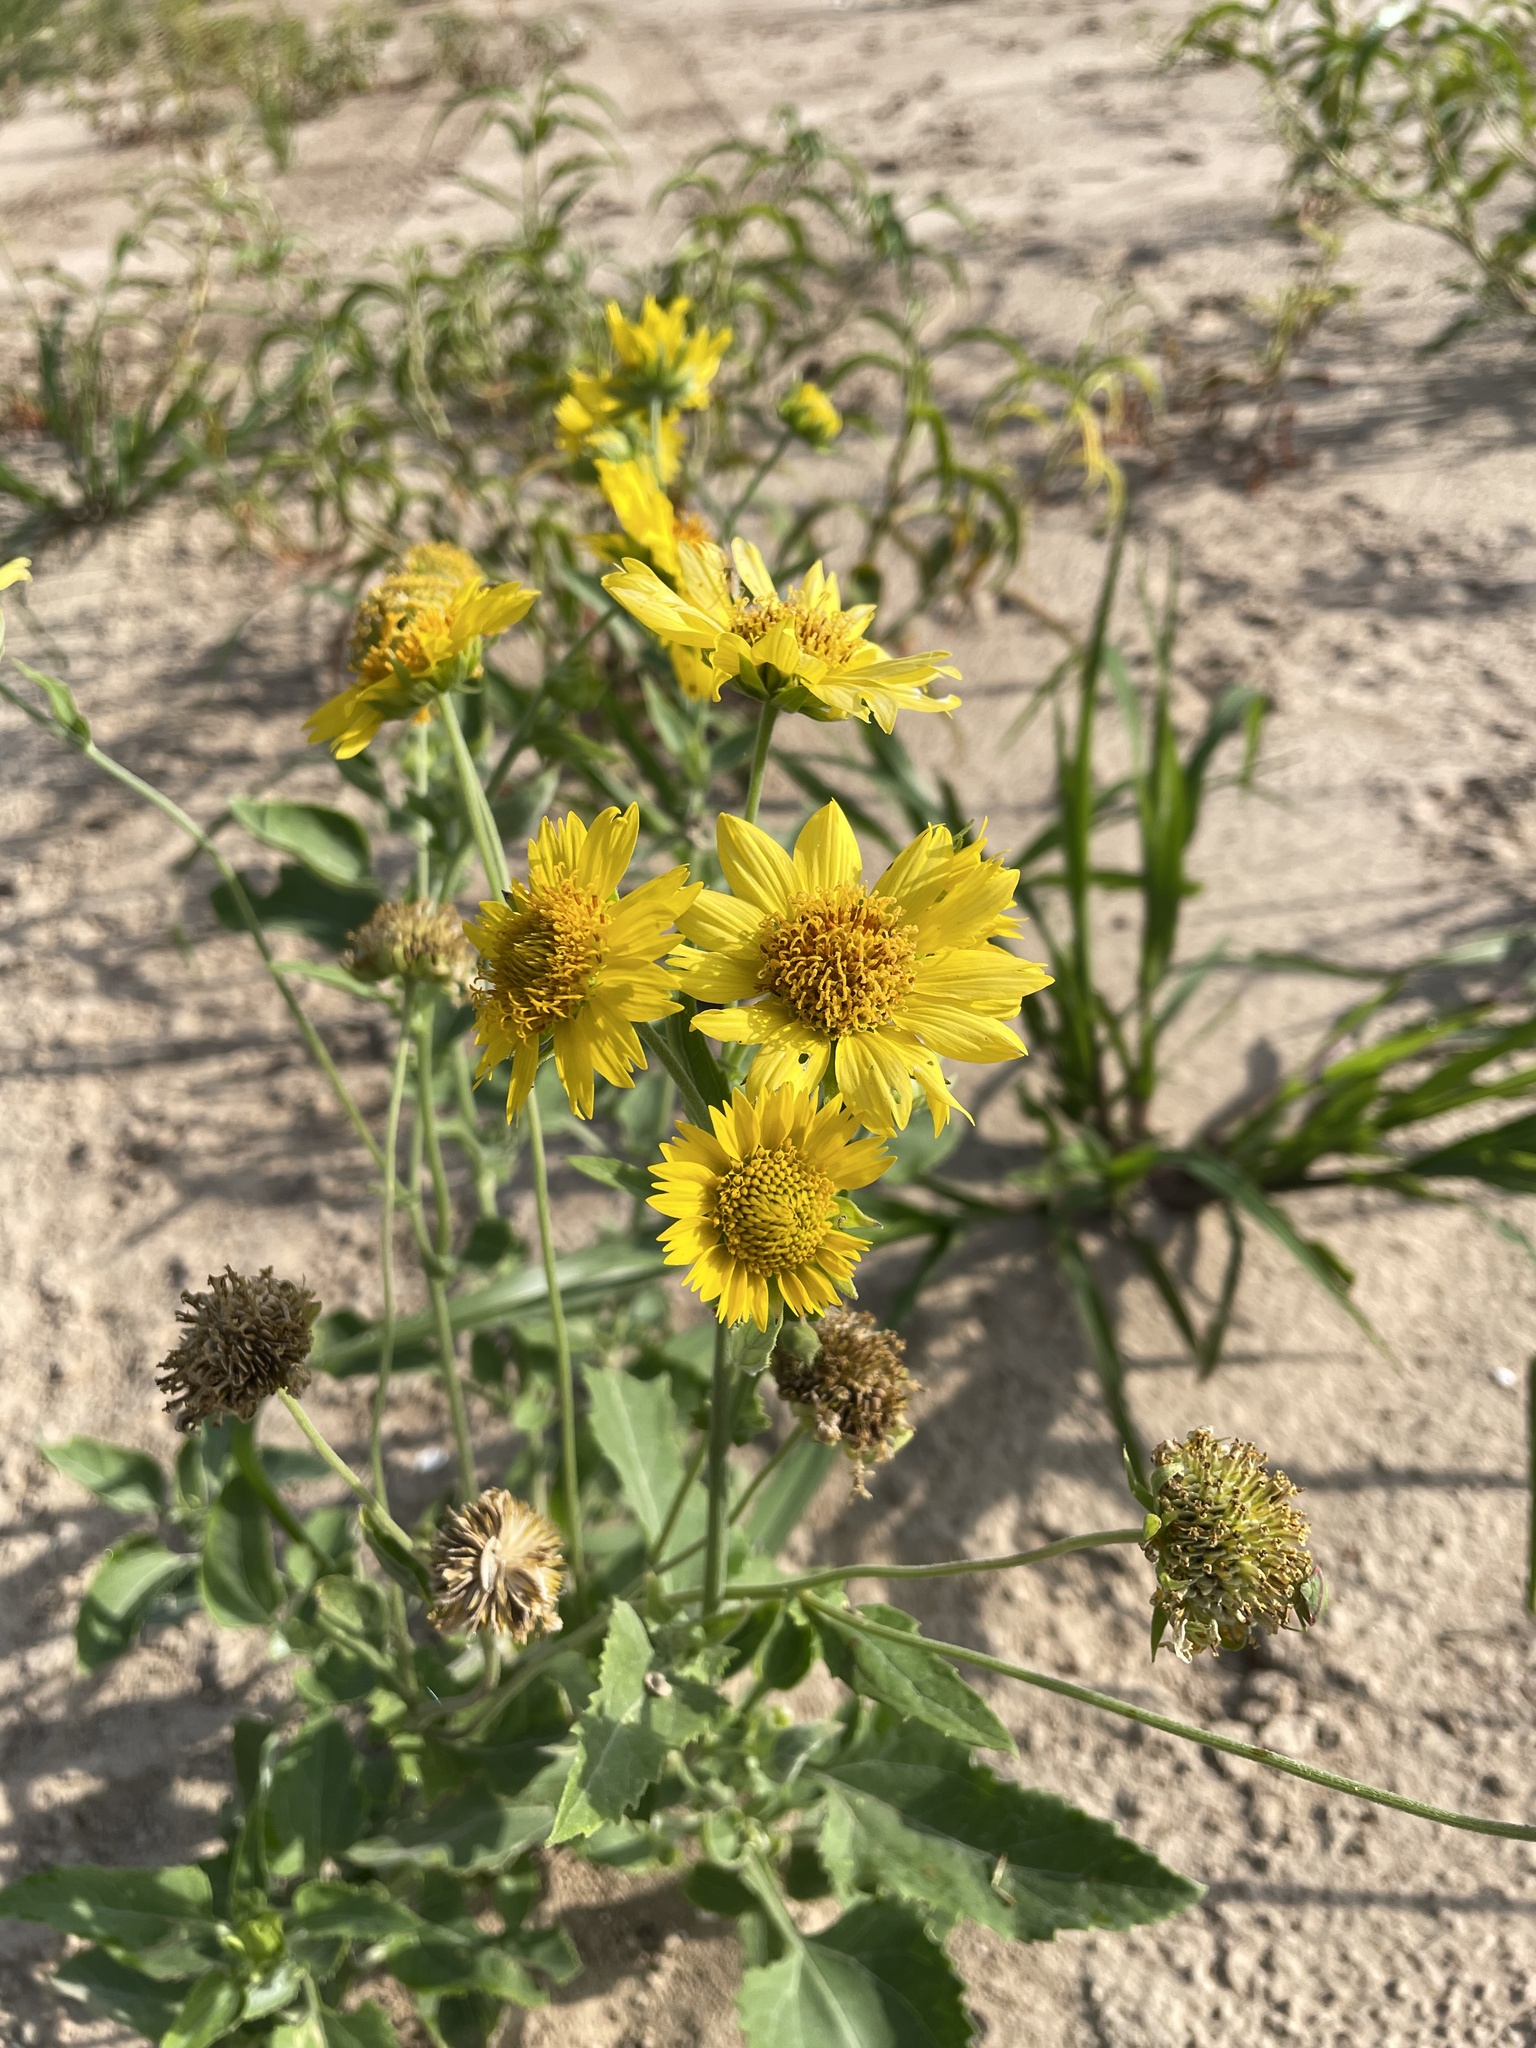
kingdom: Plantae
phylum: Tracheophyta
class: Magnoliopsida
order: Asterales
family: Asteraceae
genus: Verbesina
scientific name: Verbesina encelioides
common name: Golden crownbeard
